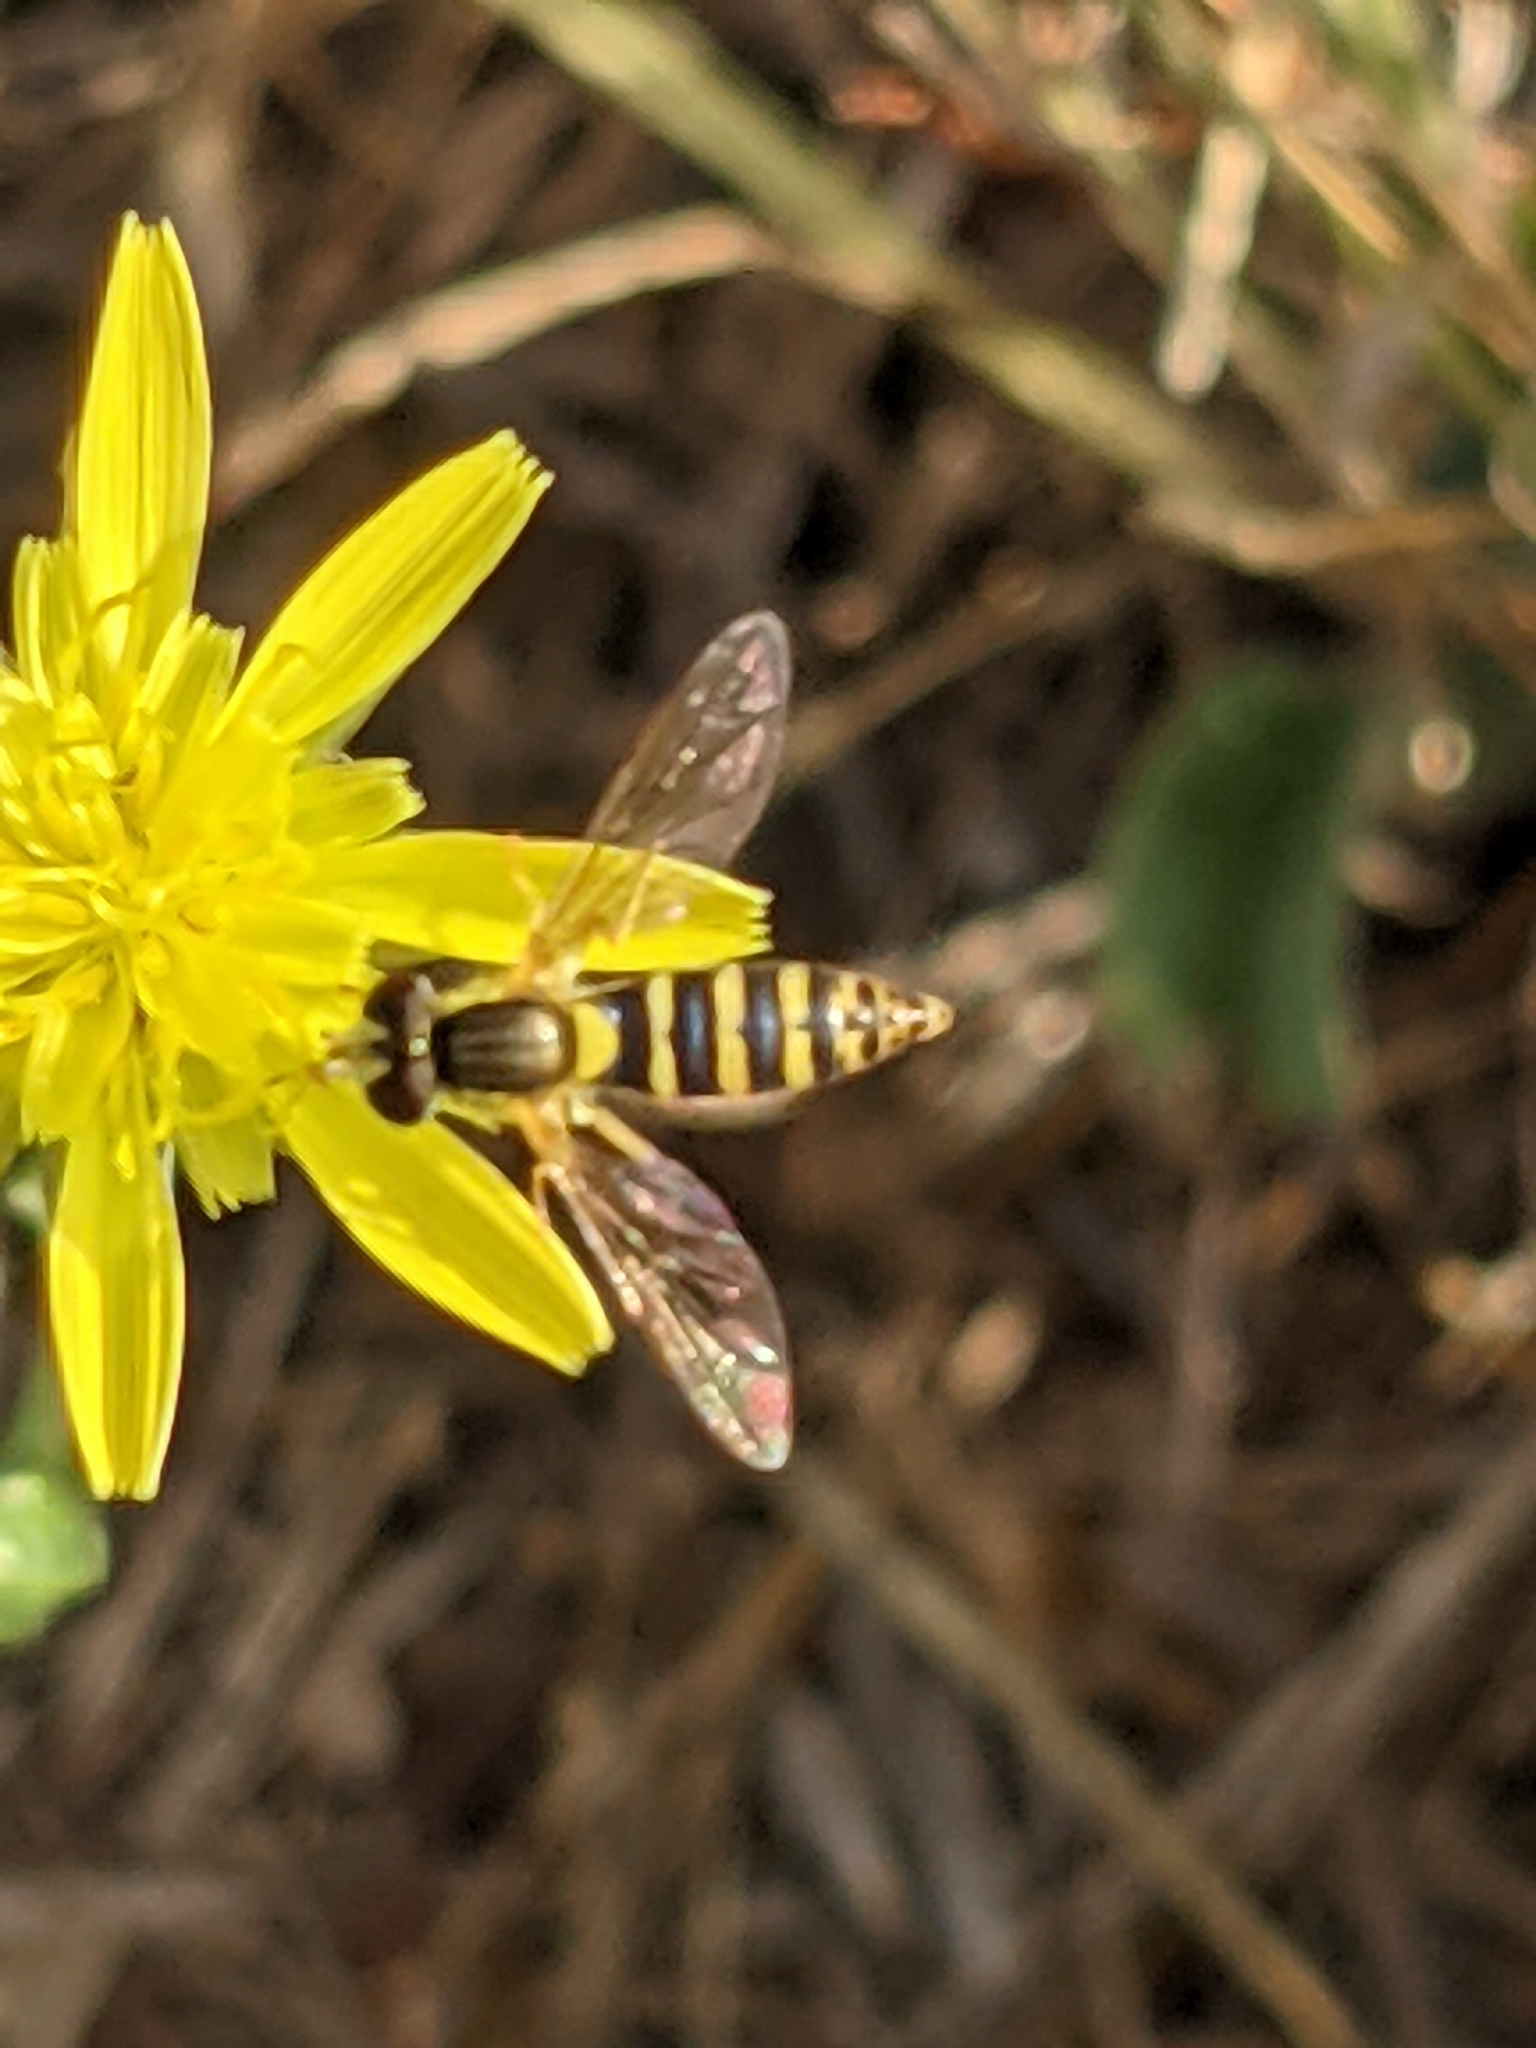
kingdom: Animalia
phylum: Arthropoda
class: Insecta
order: Diptera
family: Syrphidae
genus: Sphaerophoria
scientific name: Sphaerophoria
